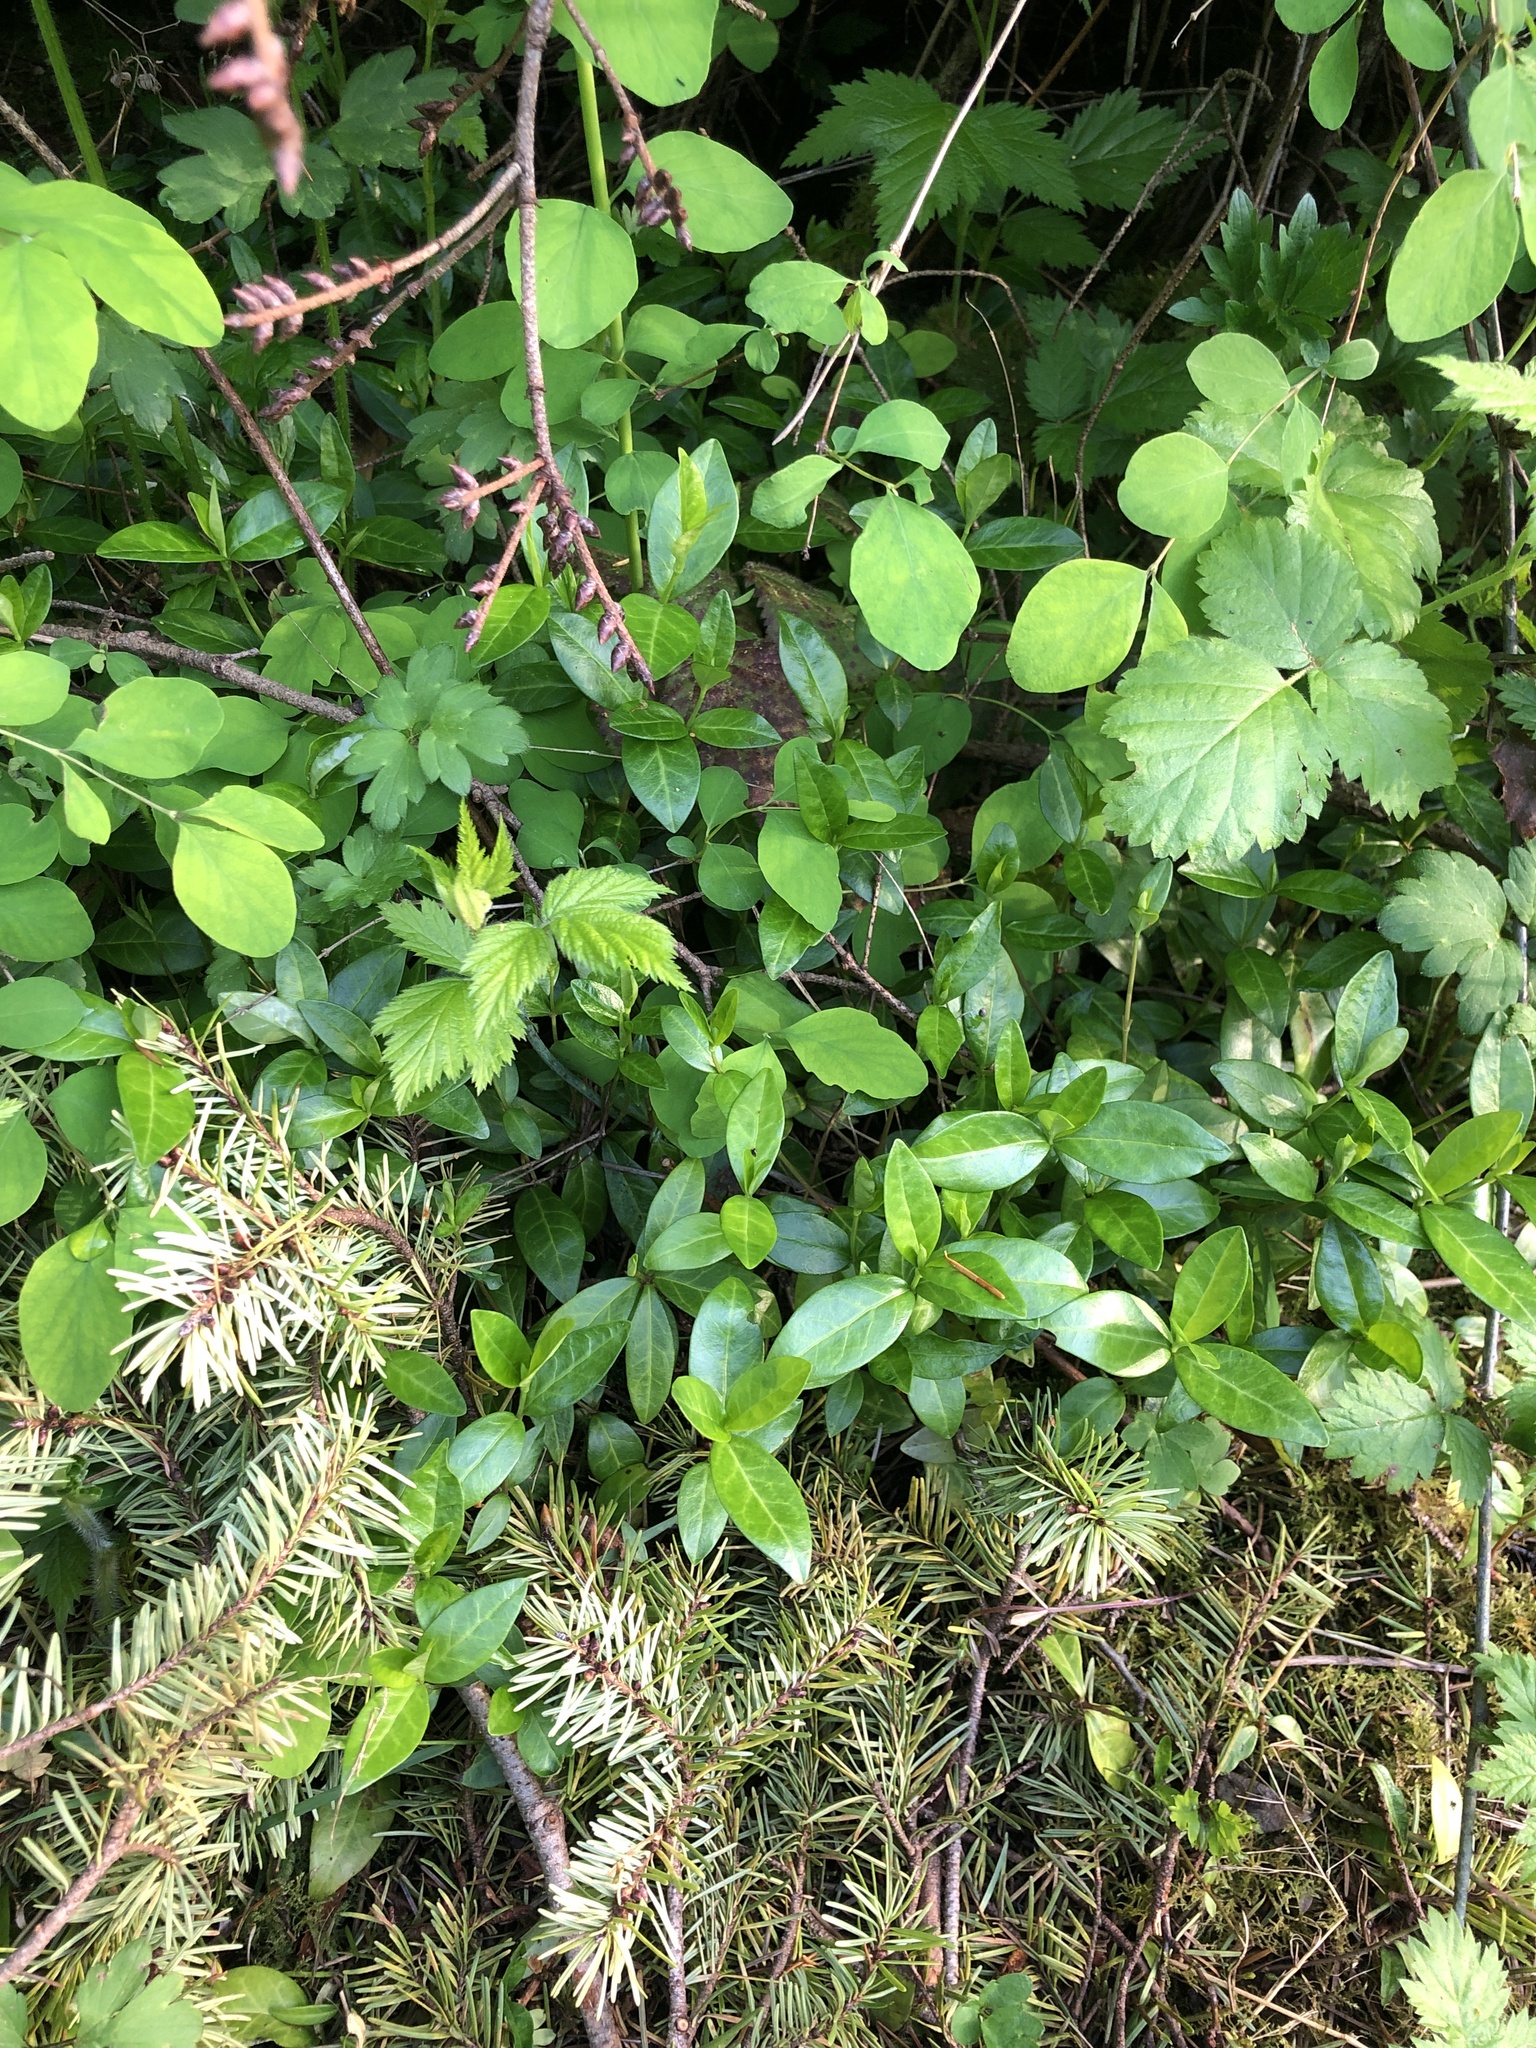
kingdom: Plantae
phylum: Tracheophyta
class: Magnoliopsida
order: Gentianales
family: Apocynaceae
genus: Vinca
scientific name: Vinca minor
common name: Lesser periwinkle
